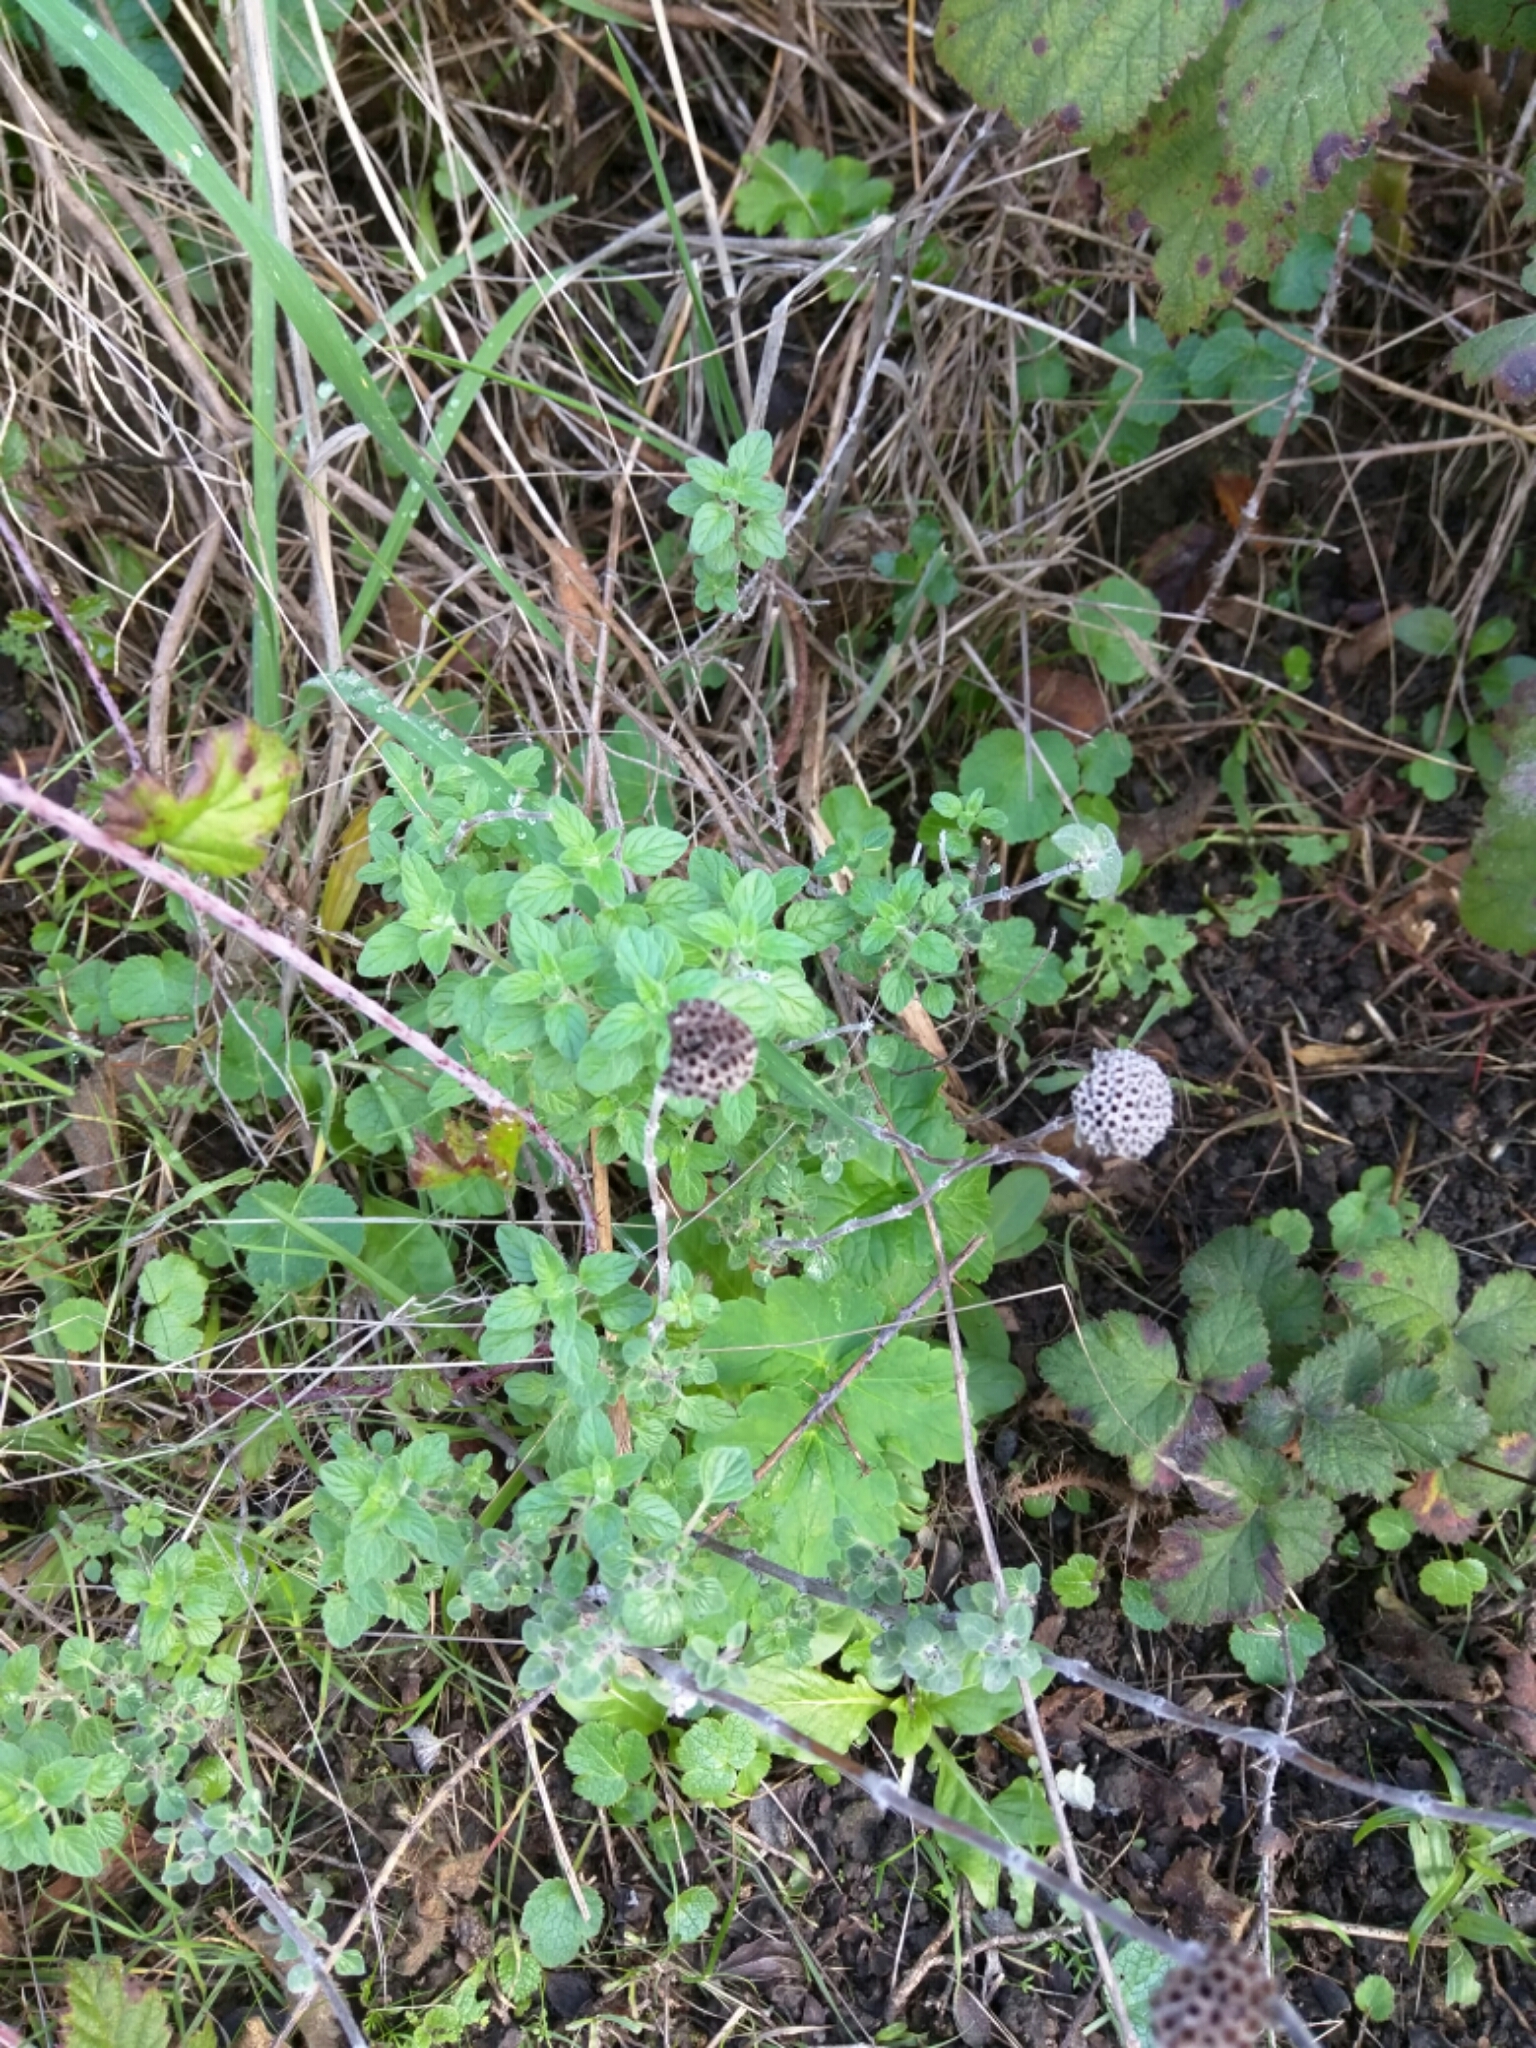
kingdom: Plantae
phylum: Tracheophyta
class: Magnoliopsida
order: Lamiales
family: Lamiaceae
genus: Monardella
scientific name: Monardella odoratissima
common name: Pacific monardella
